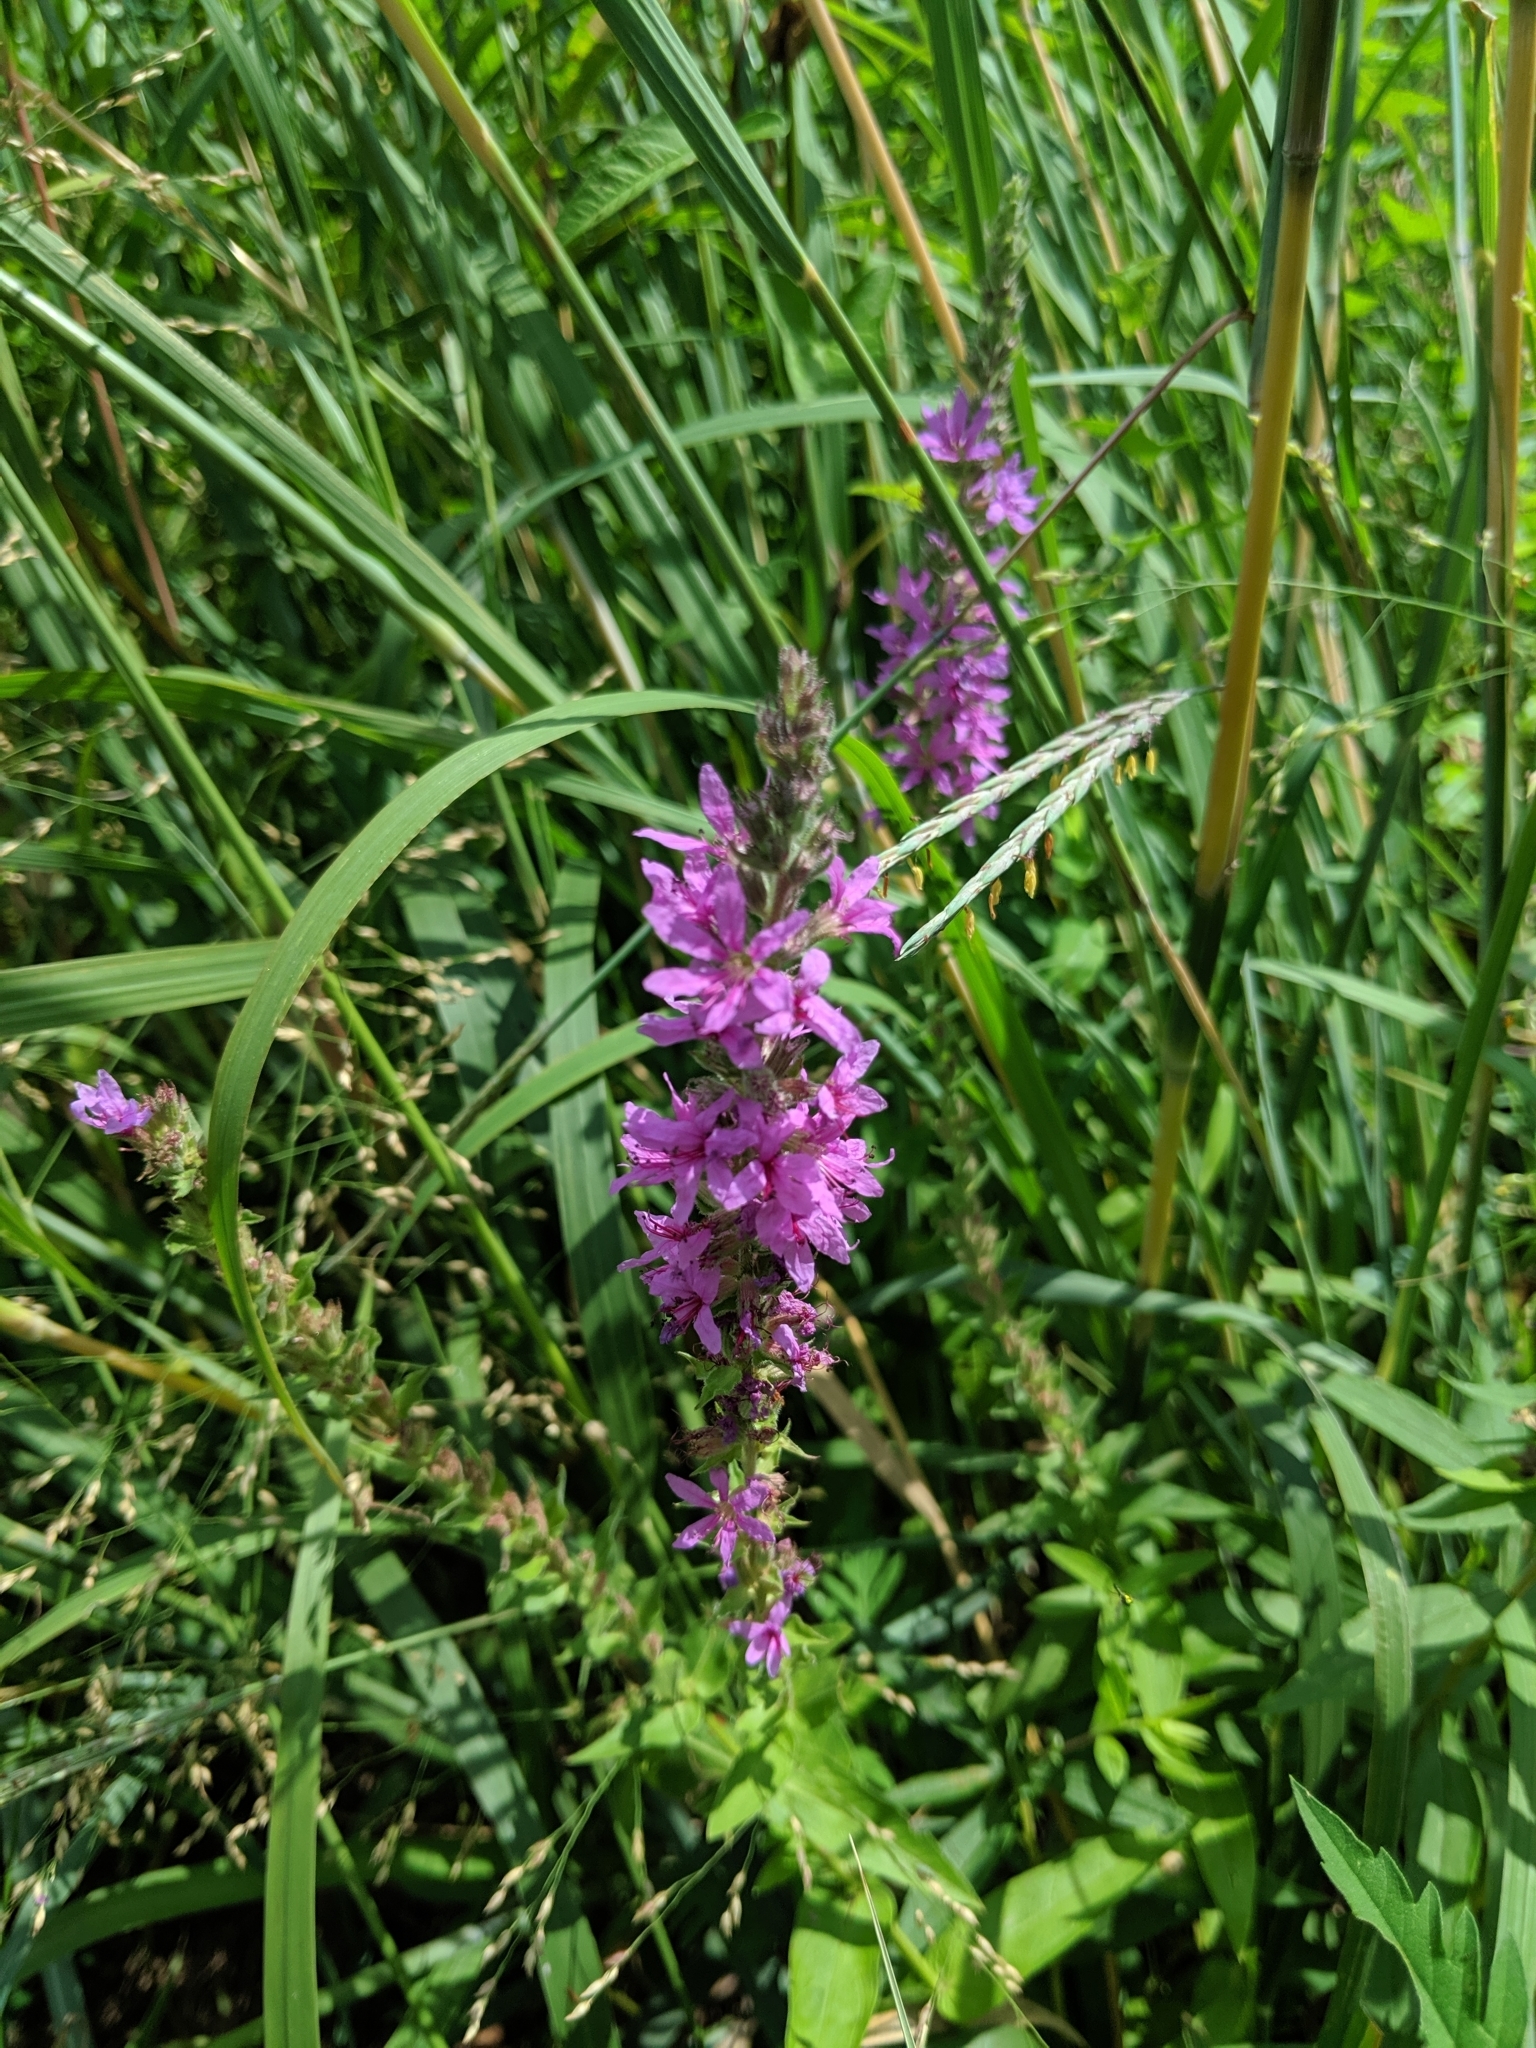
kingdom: Plantae
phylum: Tracheophyta
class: Magnoliopsida
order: Myrtales
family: Lythraceae
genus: Lythrum
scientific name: Lythrum salicaria
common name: Purple loosestrife
